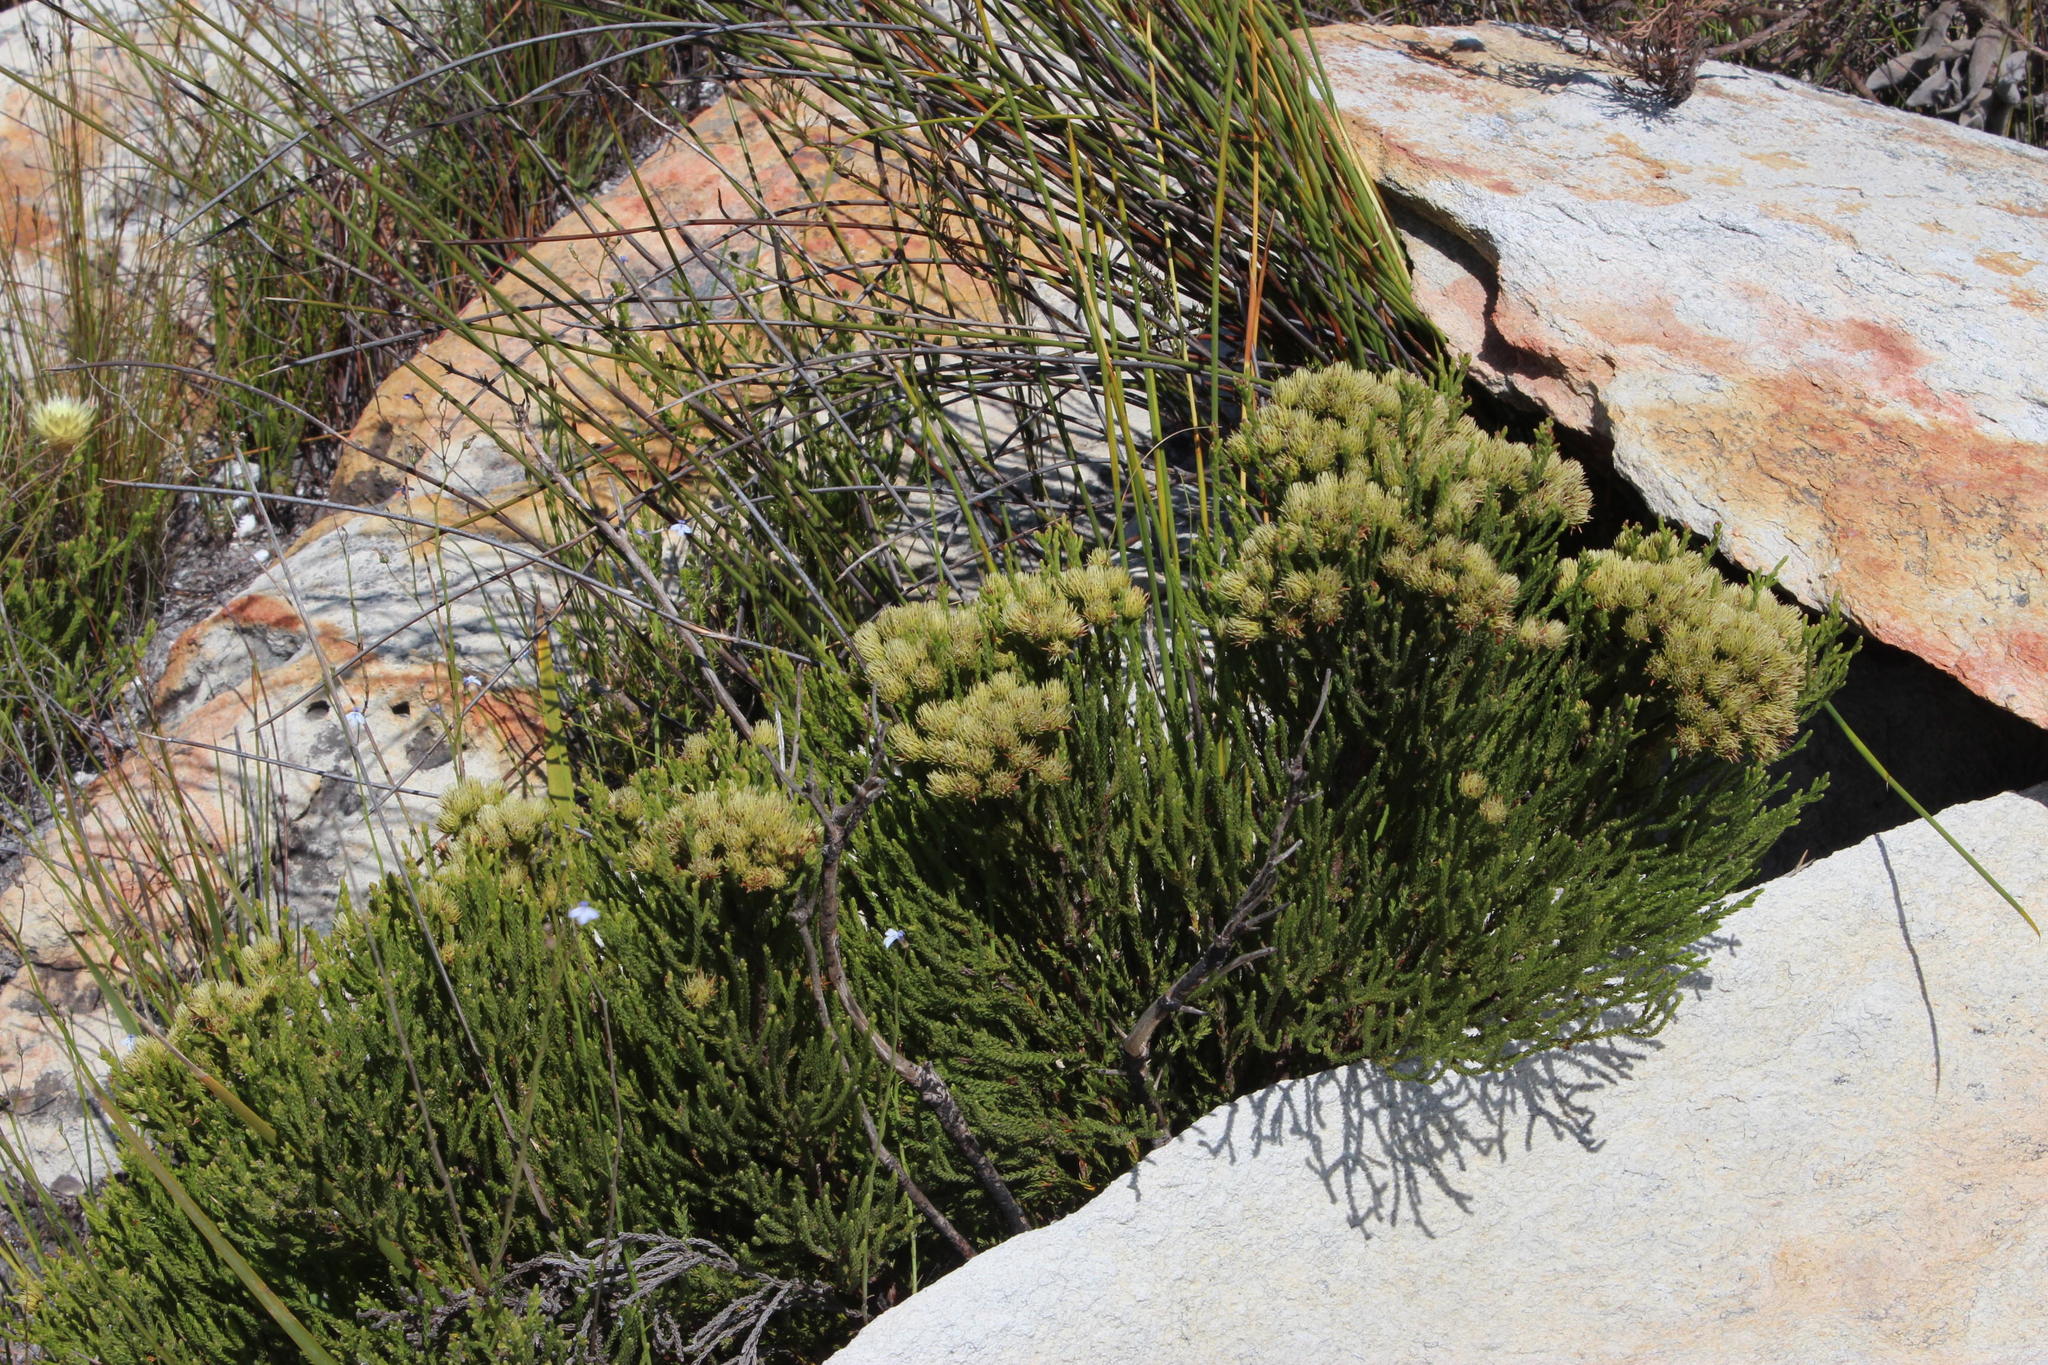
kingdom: Plantae
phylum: Tracheophyta
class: Magnoliopsida
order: Bruniales
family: Bruniaceae
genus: Brunia
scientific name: Brunia paleacea
